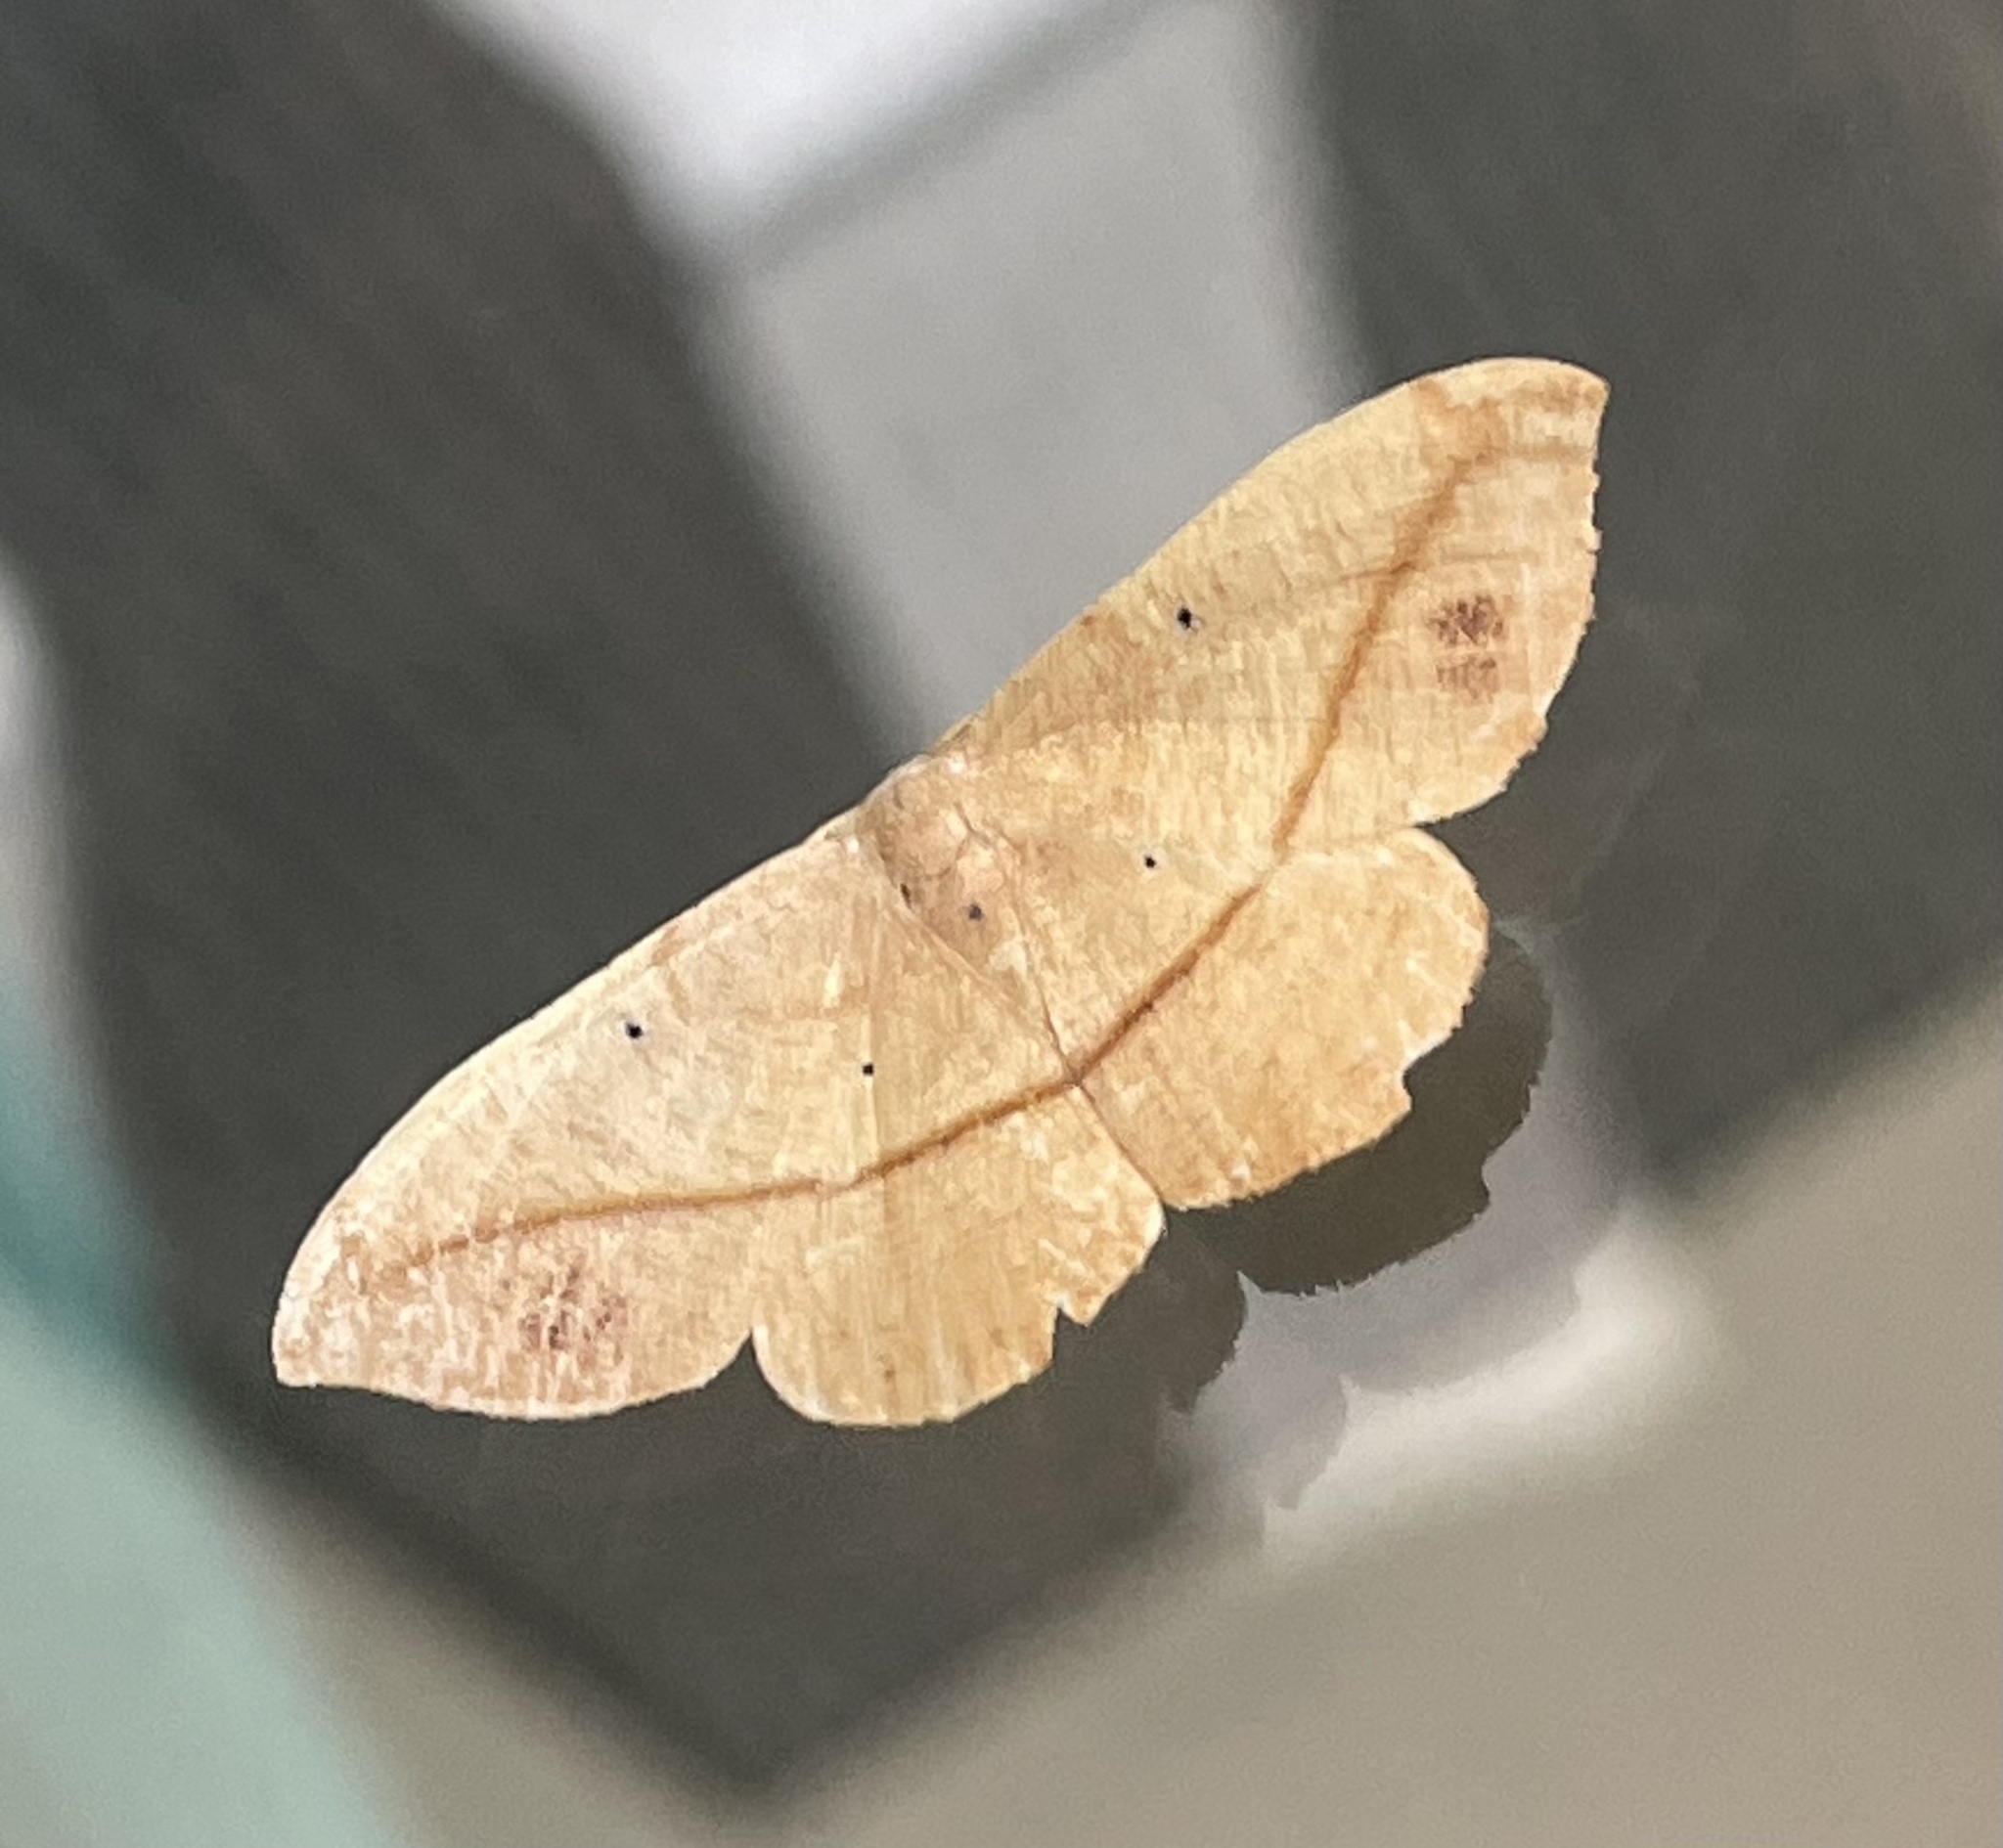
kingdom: Animalia
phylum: Arthropoda
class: Insecta
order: Lepidoptera
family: Geometridae
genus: Patalene
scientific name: Patalene olyzonaria
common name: Juniper geometer moth
